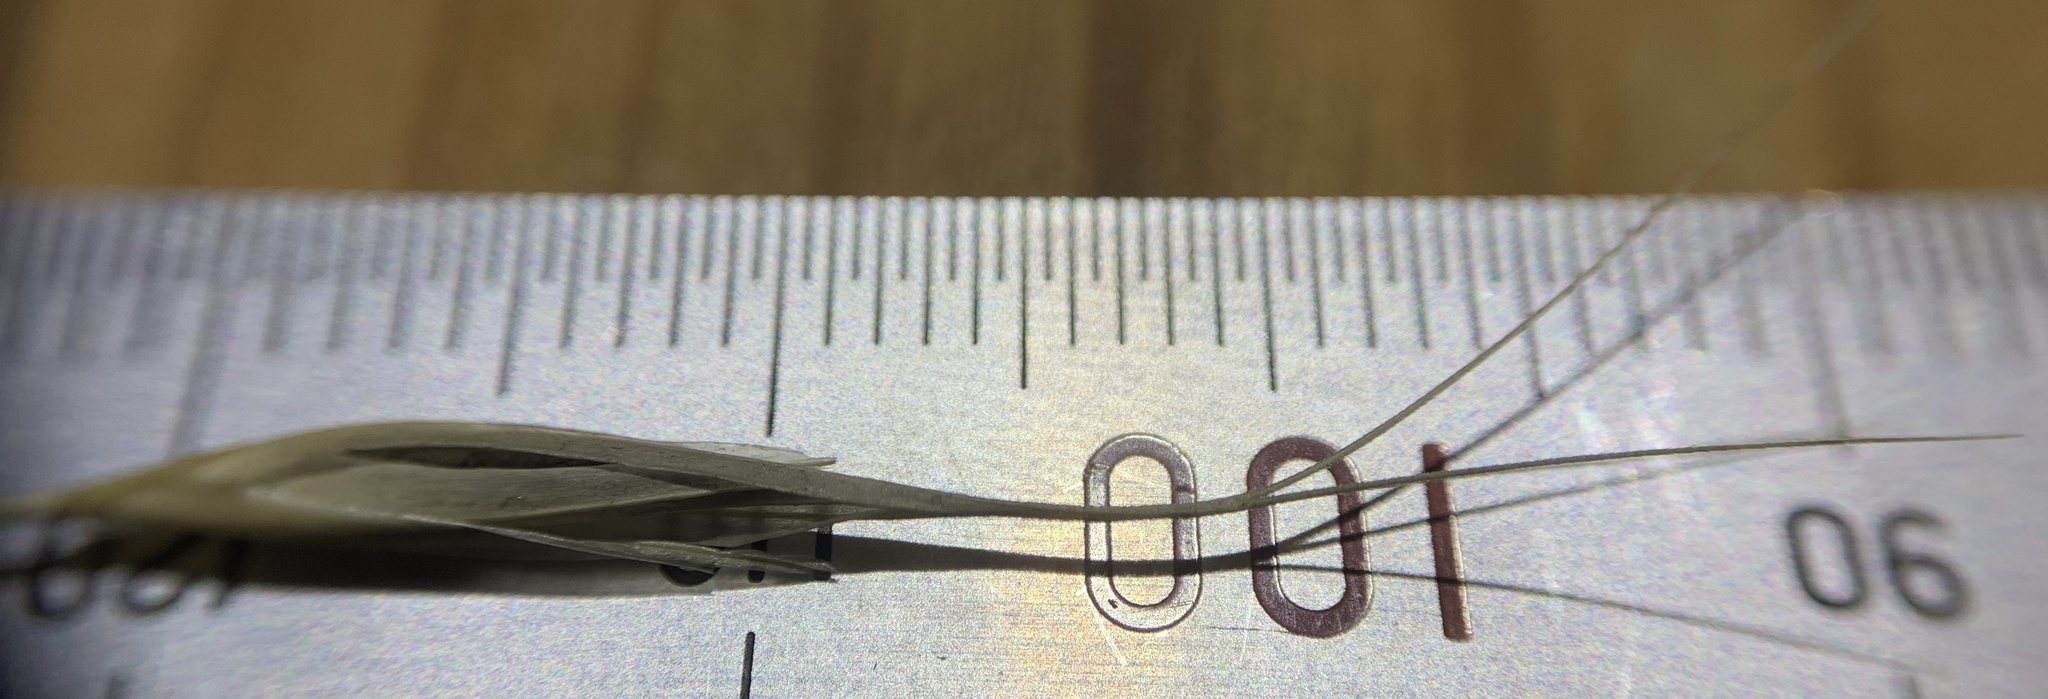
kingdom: Plantae
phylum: Tracheophyta
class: Liliopsida
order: Poales
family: Poaceae
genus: Aristida
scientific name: Aristida arizonica
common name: Arizona threeawn
